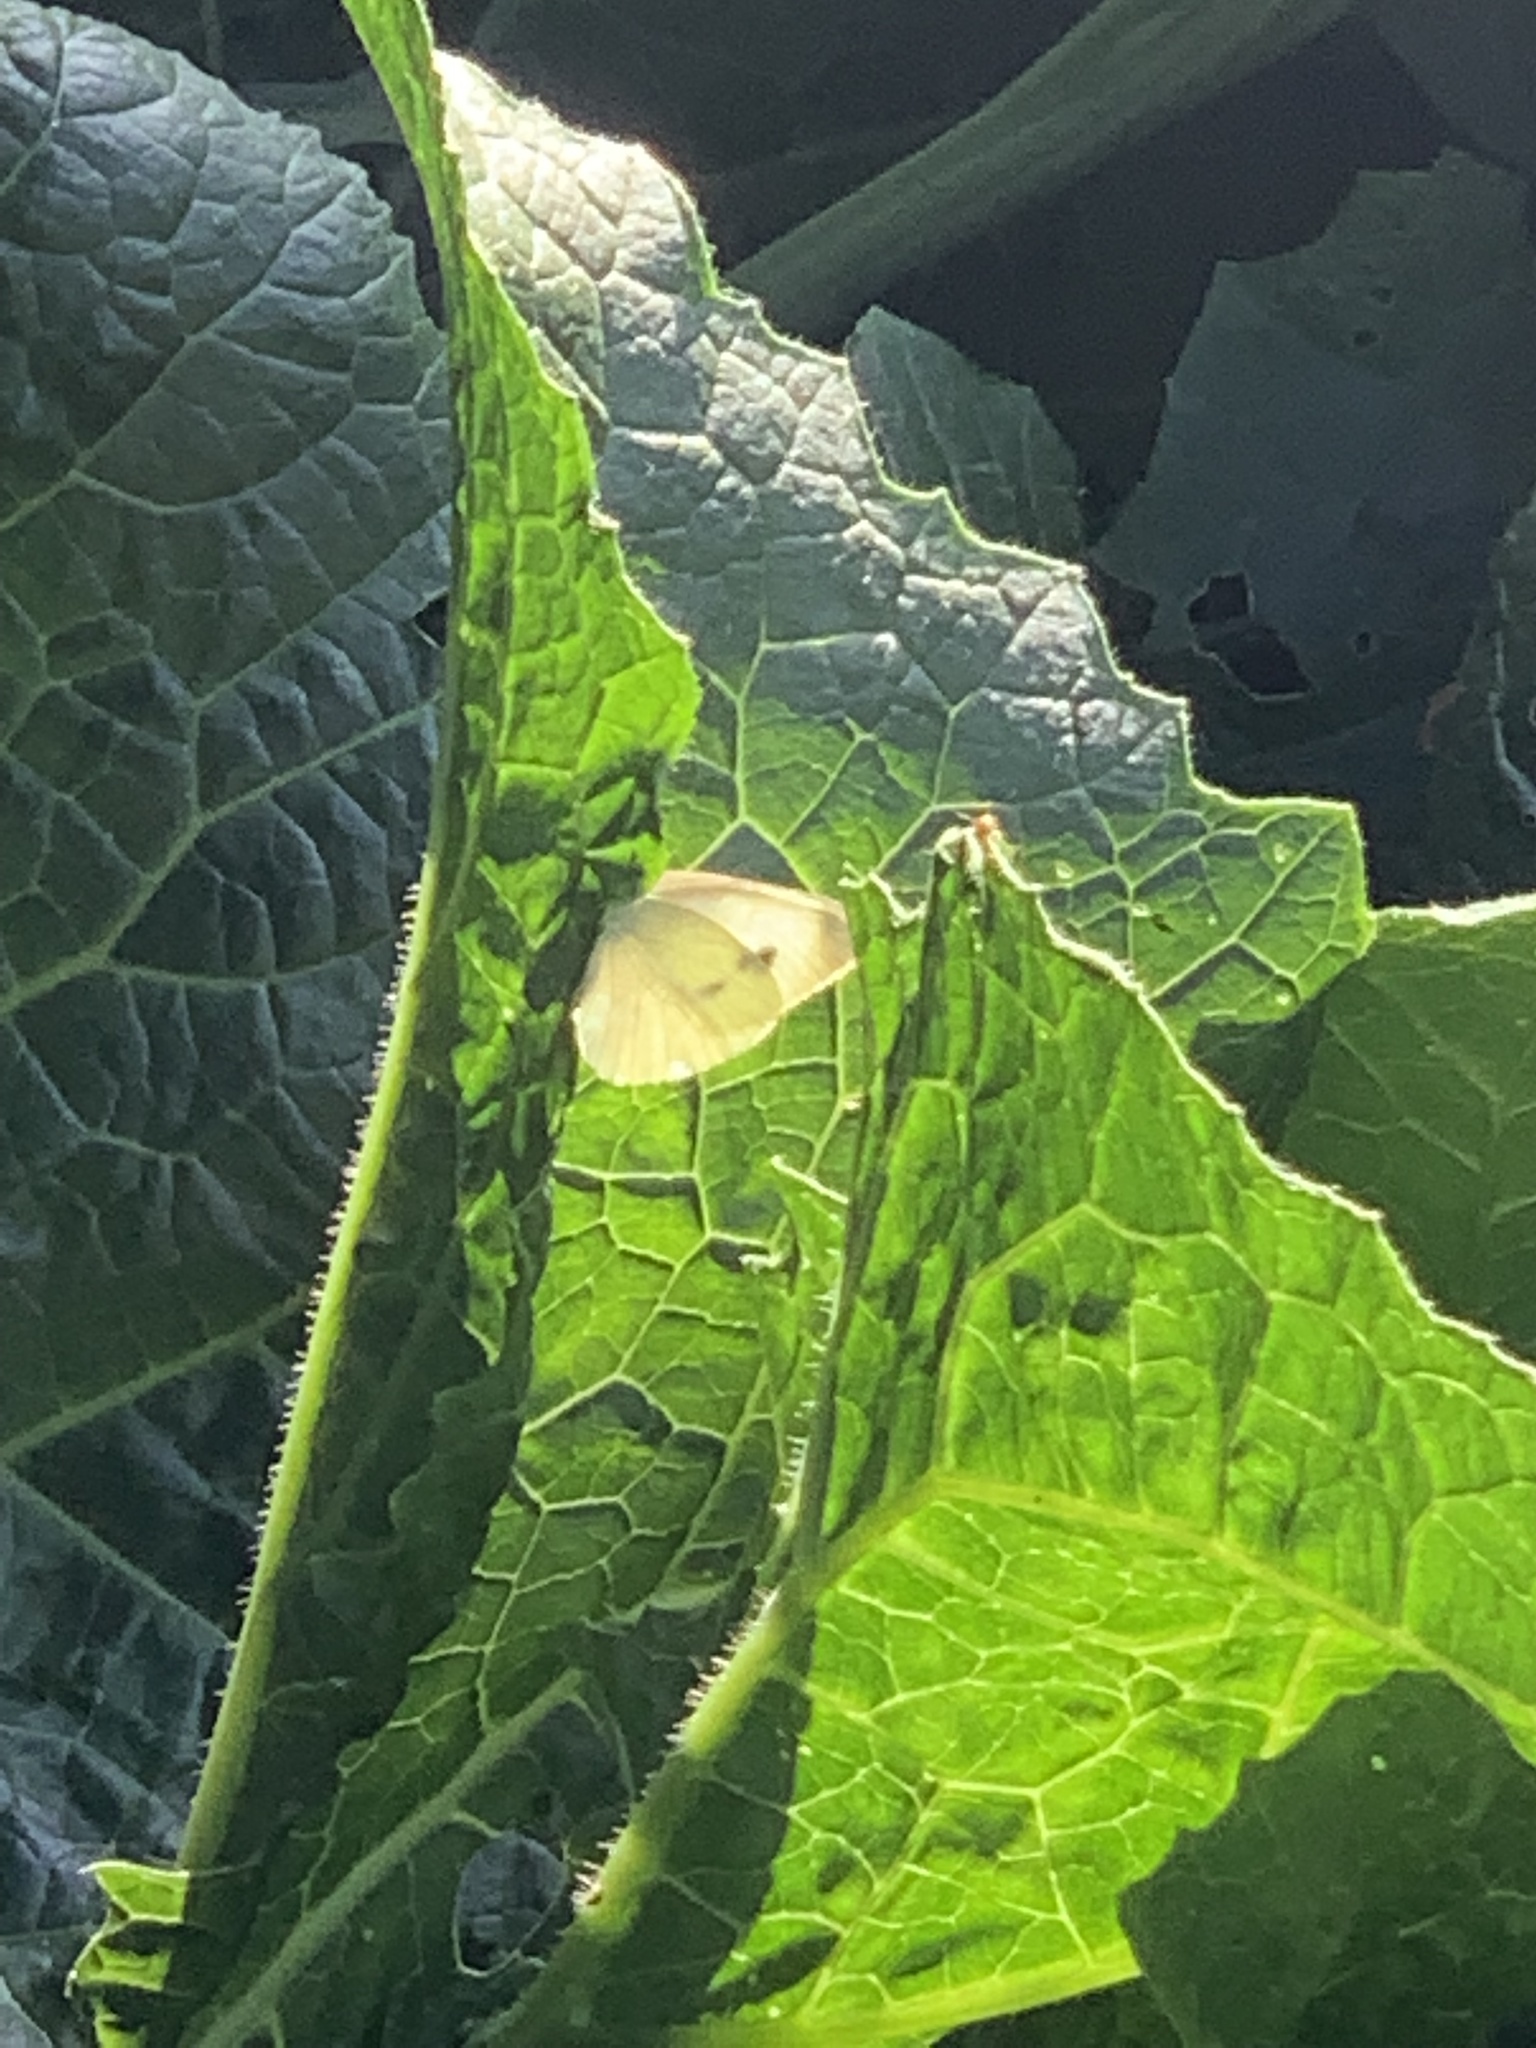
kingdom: Animalia
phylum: Arthropoda
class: Insecta
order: Lepidoptera
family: Pieridae
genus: Pieris
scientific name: Pieris rapae
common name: Small white
